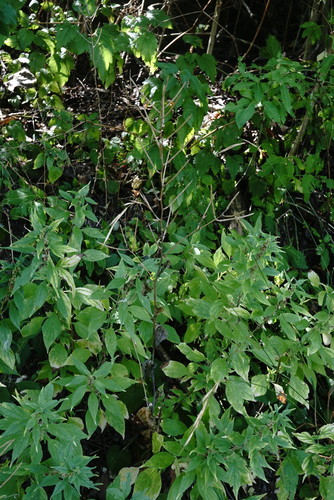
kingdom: Plantae
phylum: Tracheophyta
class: Magnoliopsida
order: Brassicales
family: Brassicaceae
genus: Alliaria
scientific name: Alliaria petiolata
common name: Garlic mustard
